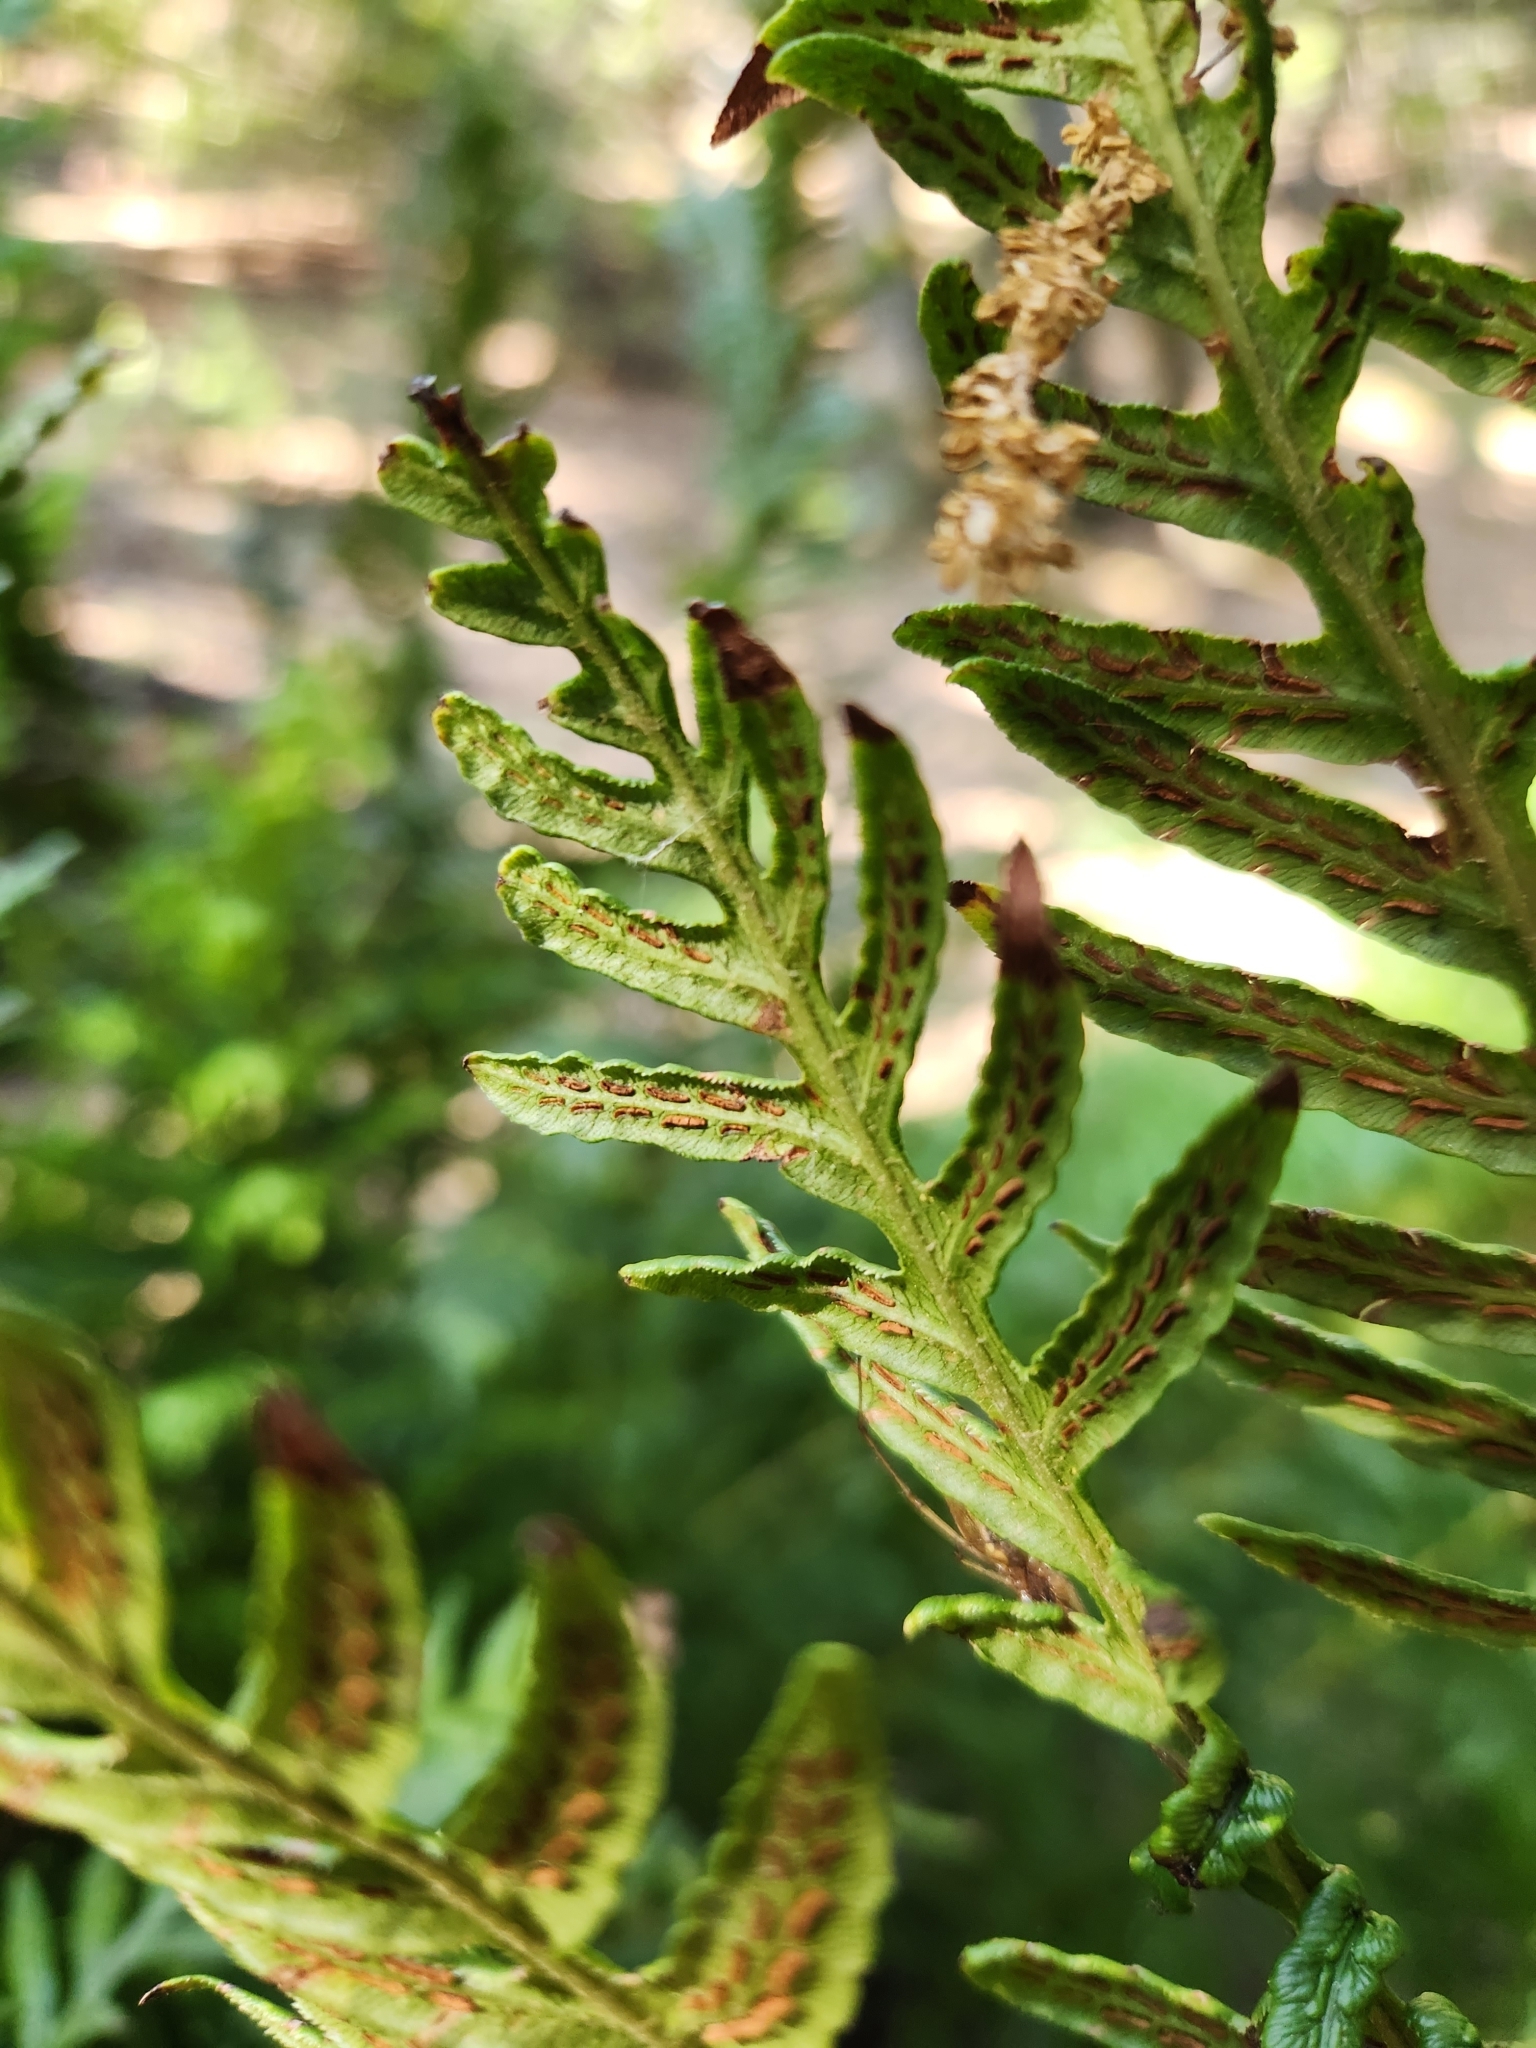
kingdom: Plantae
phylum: Tracheophyta
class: Polypodiopsida
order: Polypodiales
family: Blechnaceae
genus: Woodwardia
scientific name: Woodwardia fimbriata
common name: Giant chain fern
